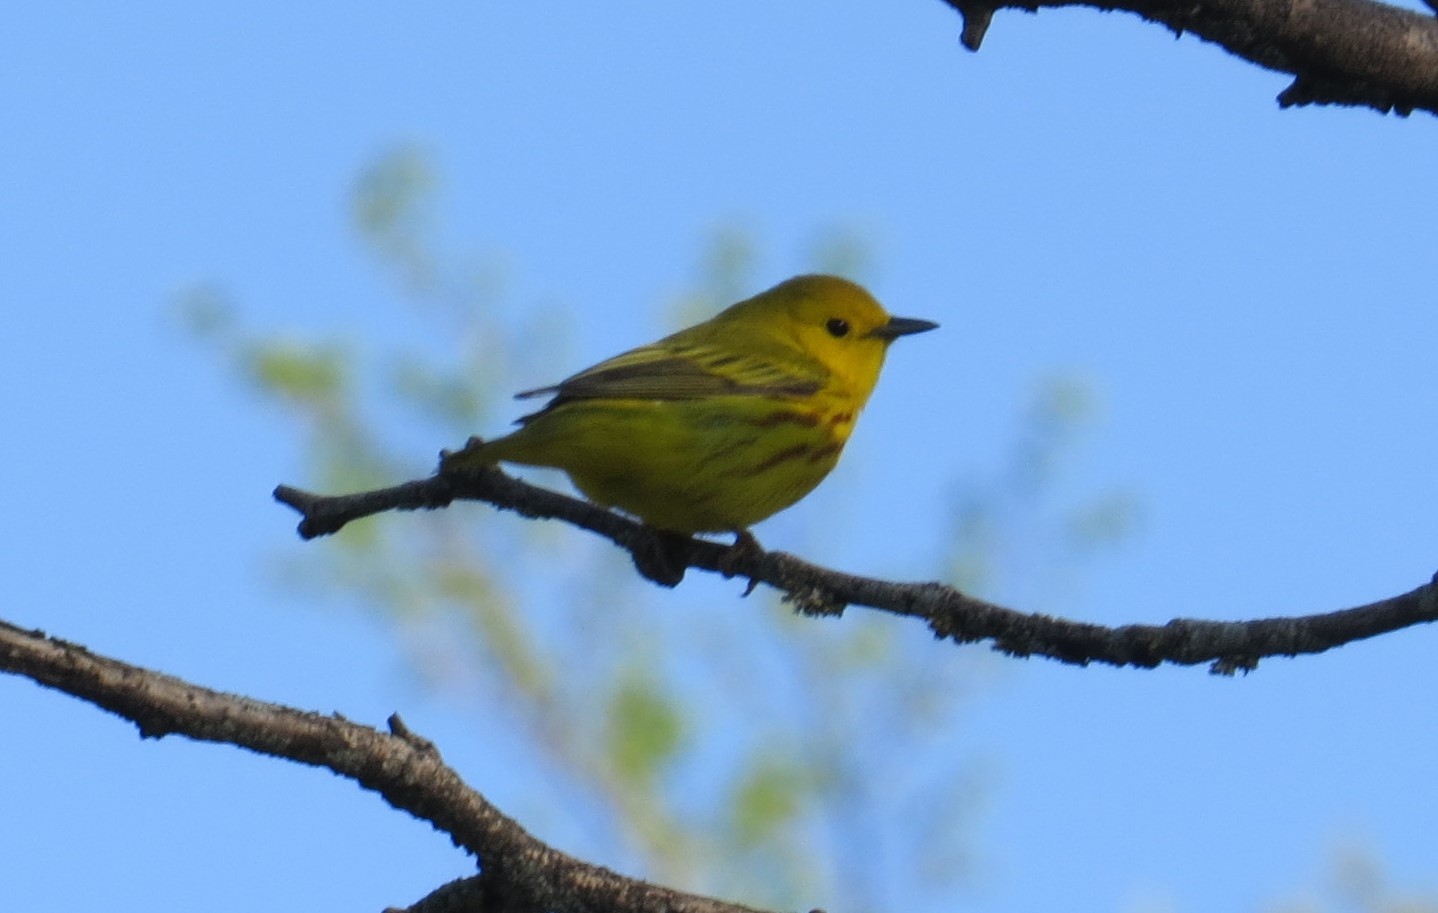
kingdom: Animalia
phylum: Chordata
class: Aves
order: Passeriformes
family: Parulidae
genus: Setophaga
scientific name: Setophaga petechia
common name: Yellow warbler
